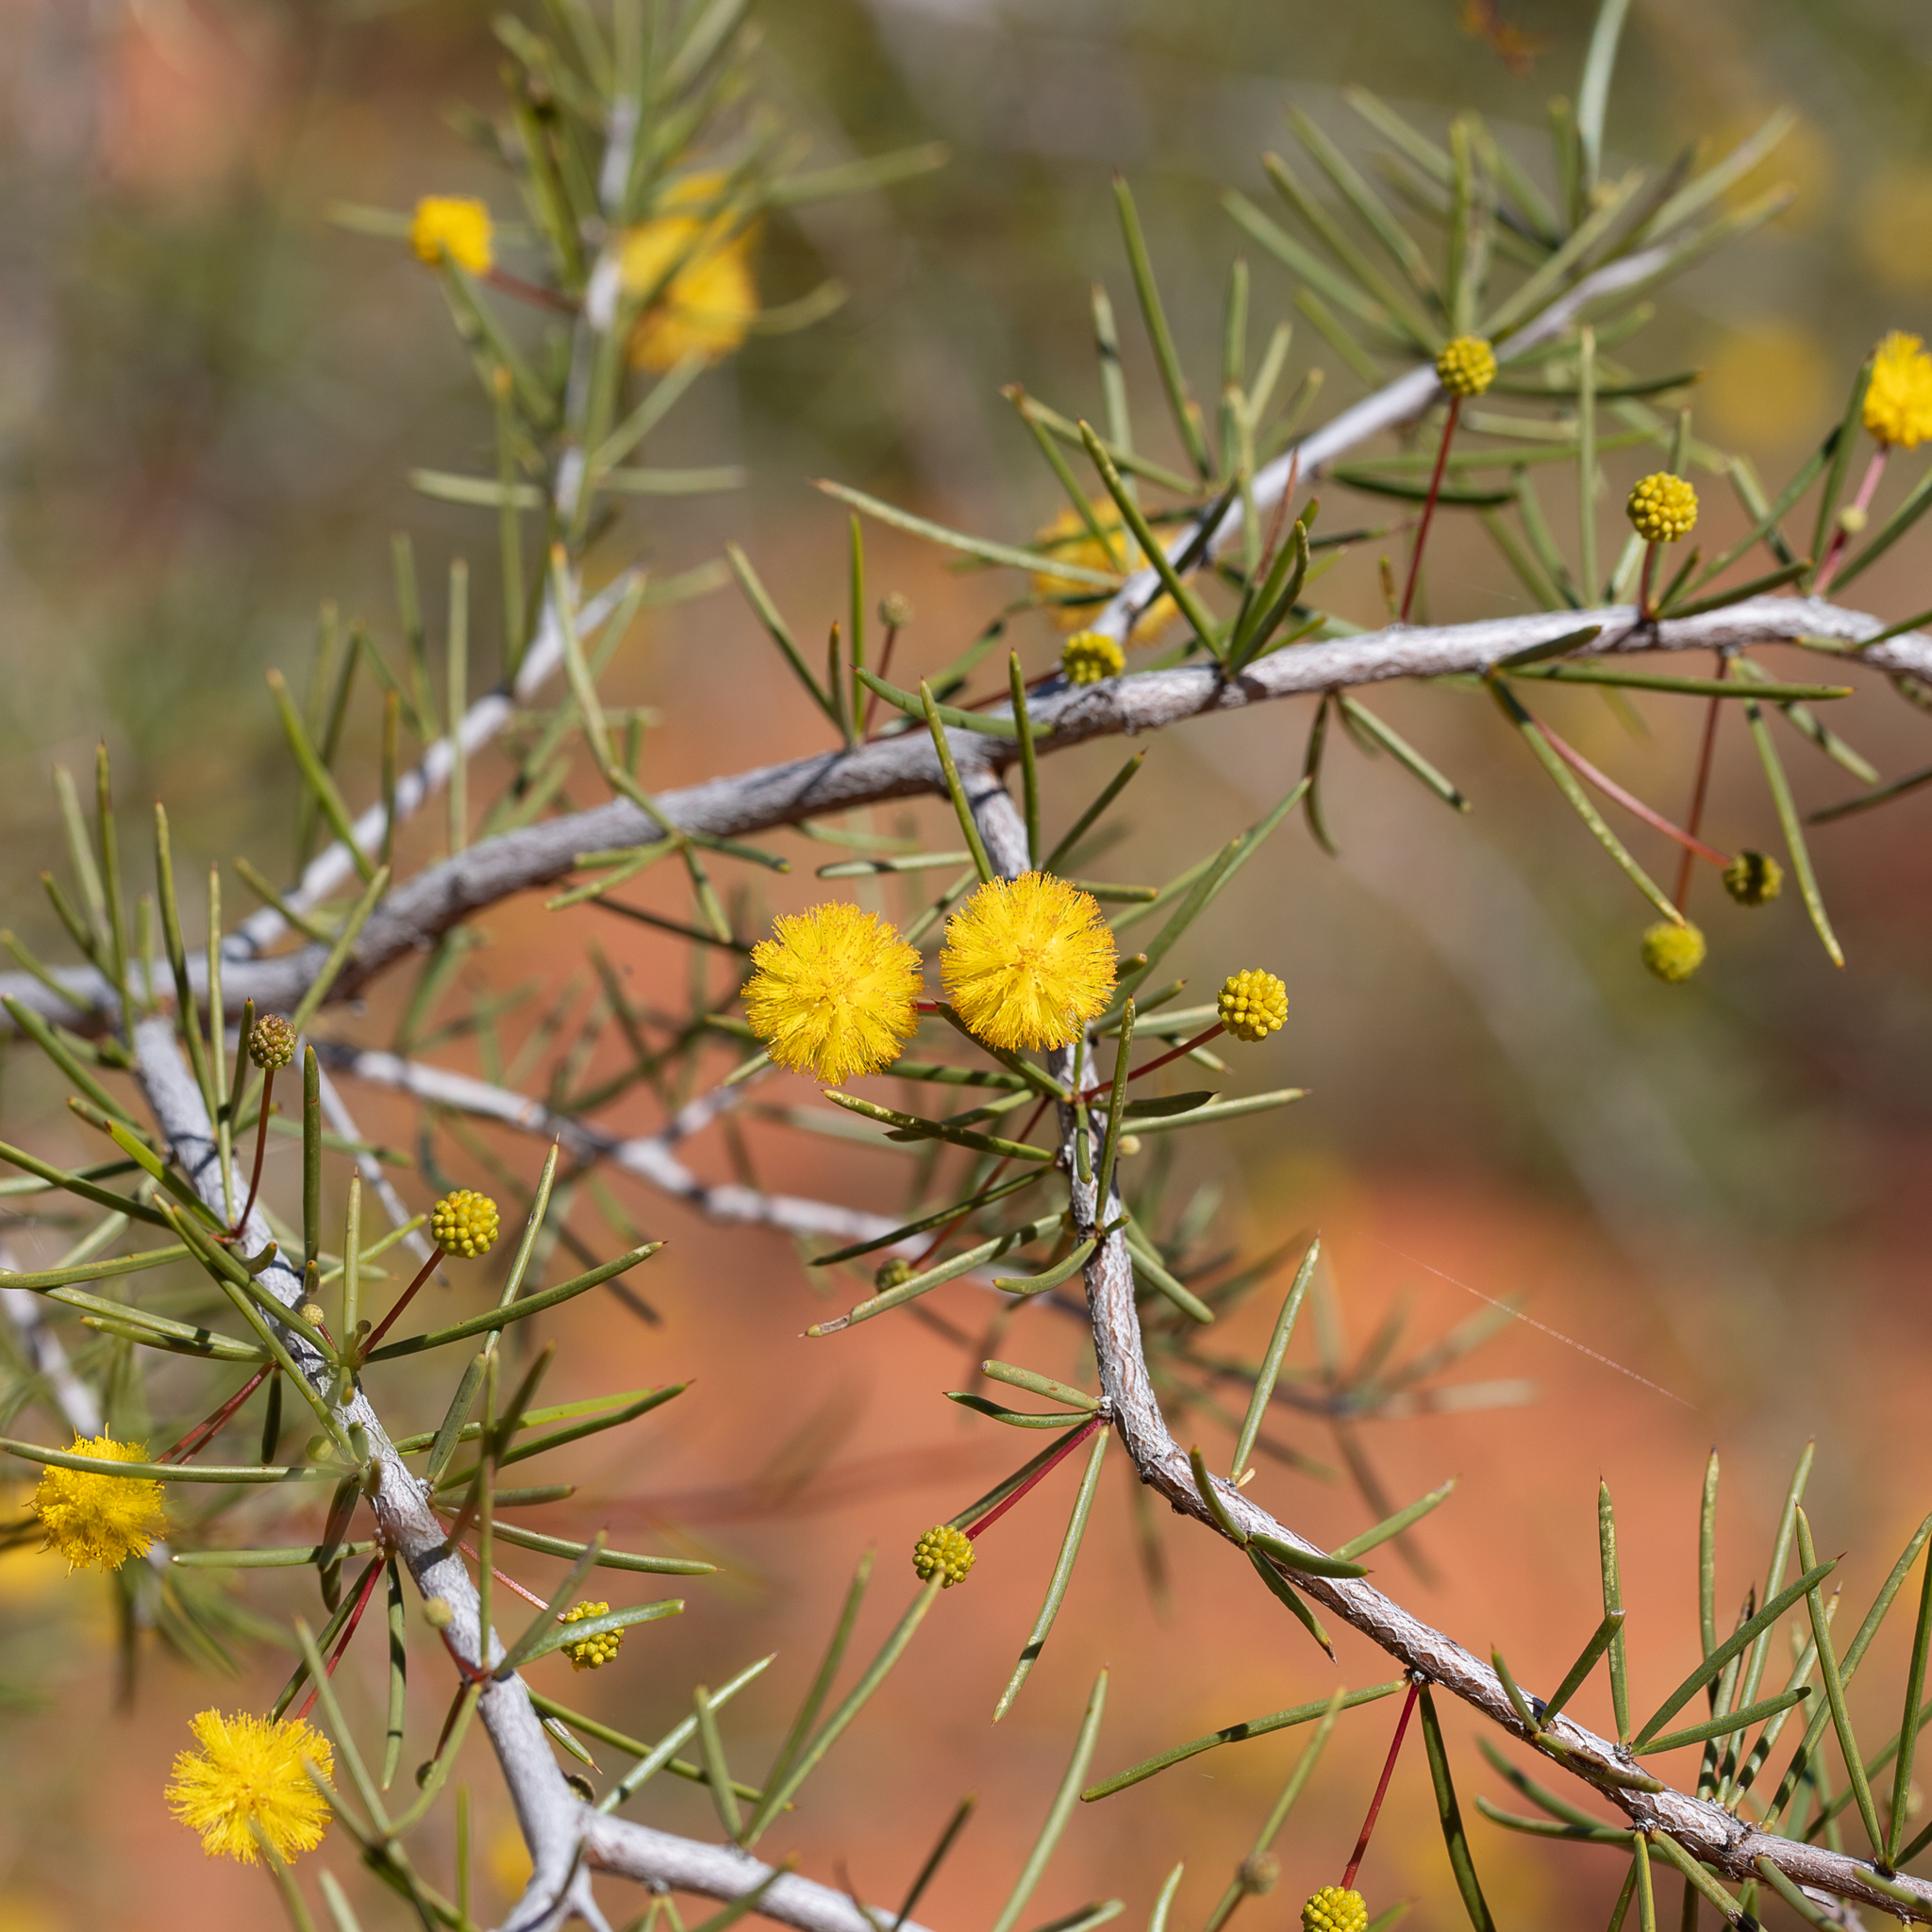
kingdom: Plantae
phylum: Tracheophyta
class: Magnoliopsida
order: Fabales
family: Fabaceae
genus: Acacia
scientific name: Acacia tetragonophylla
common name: Dead finish
